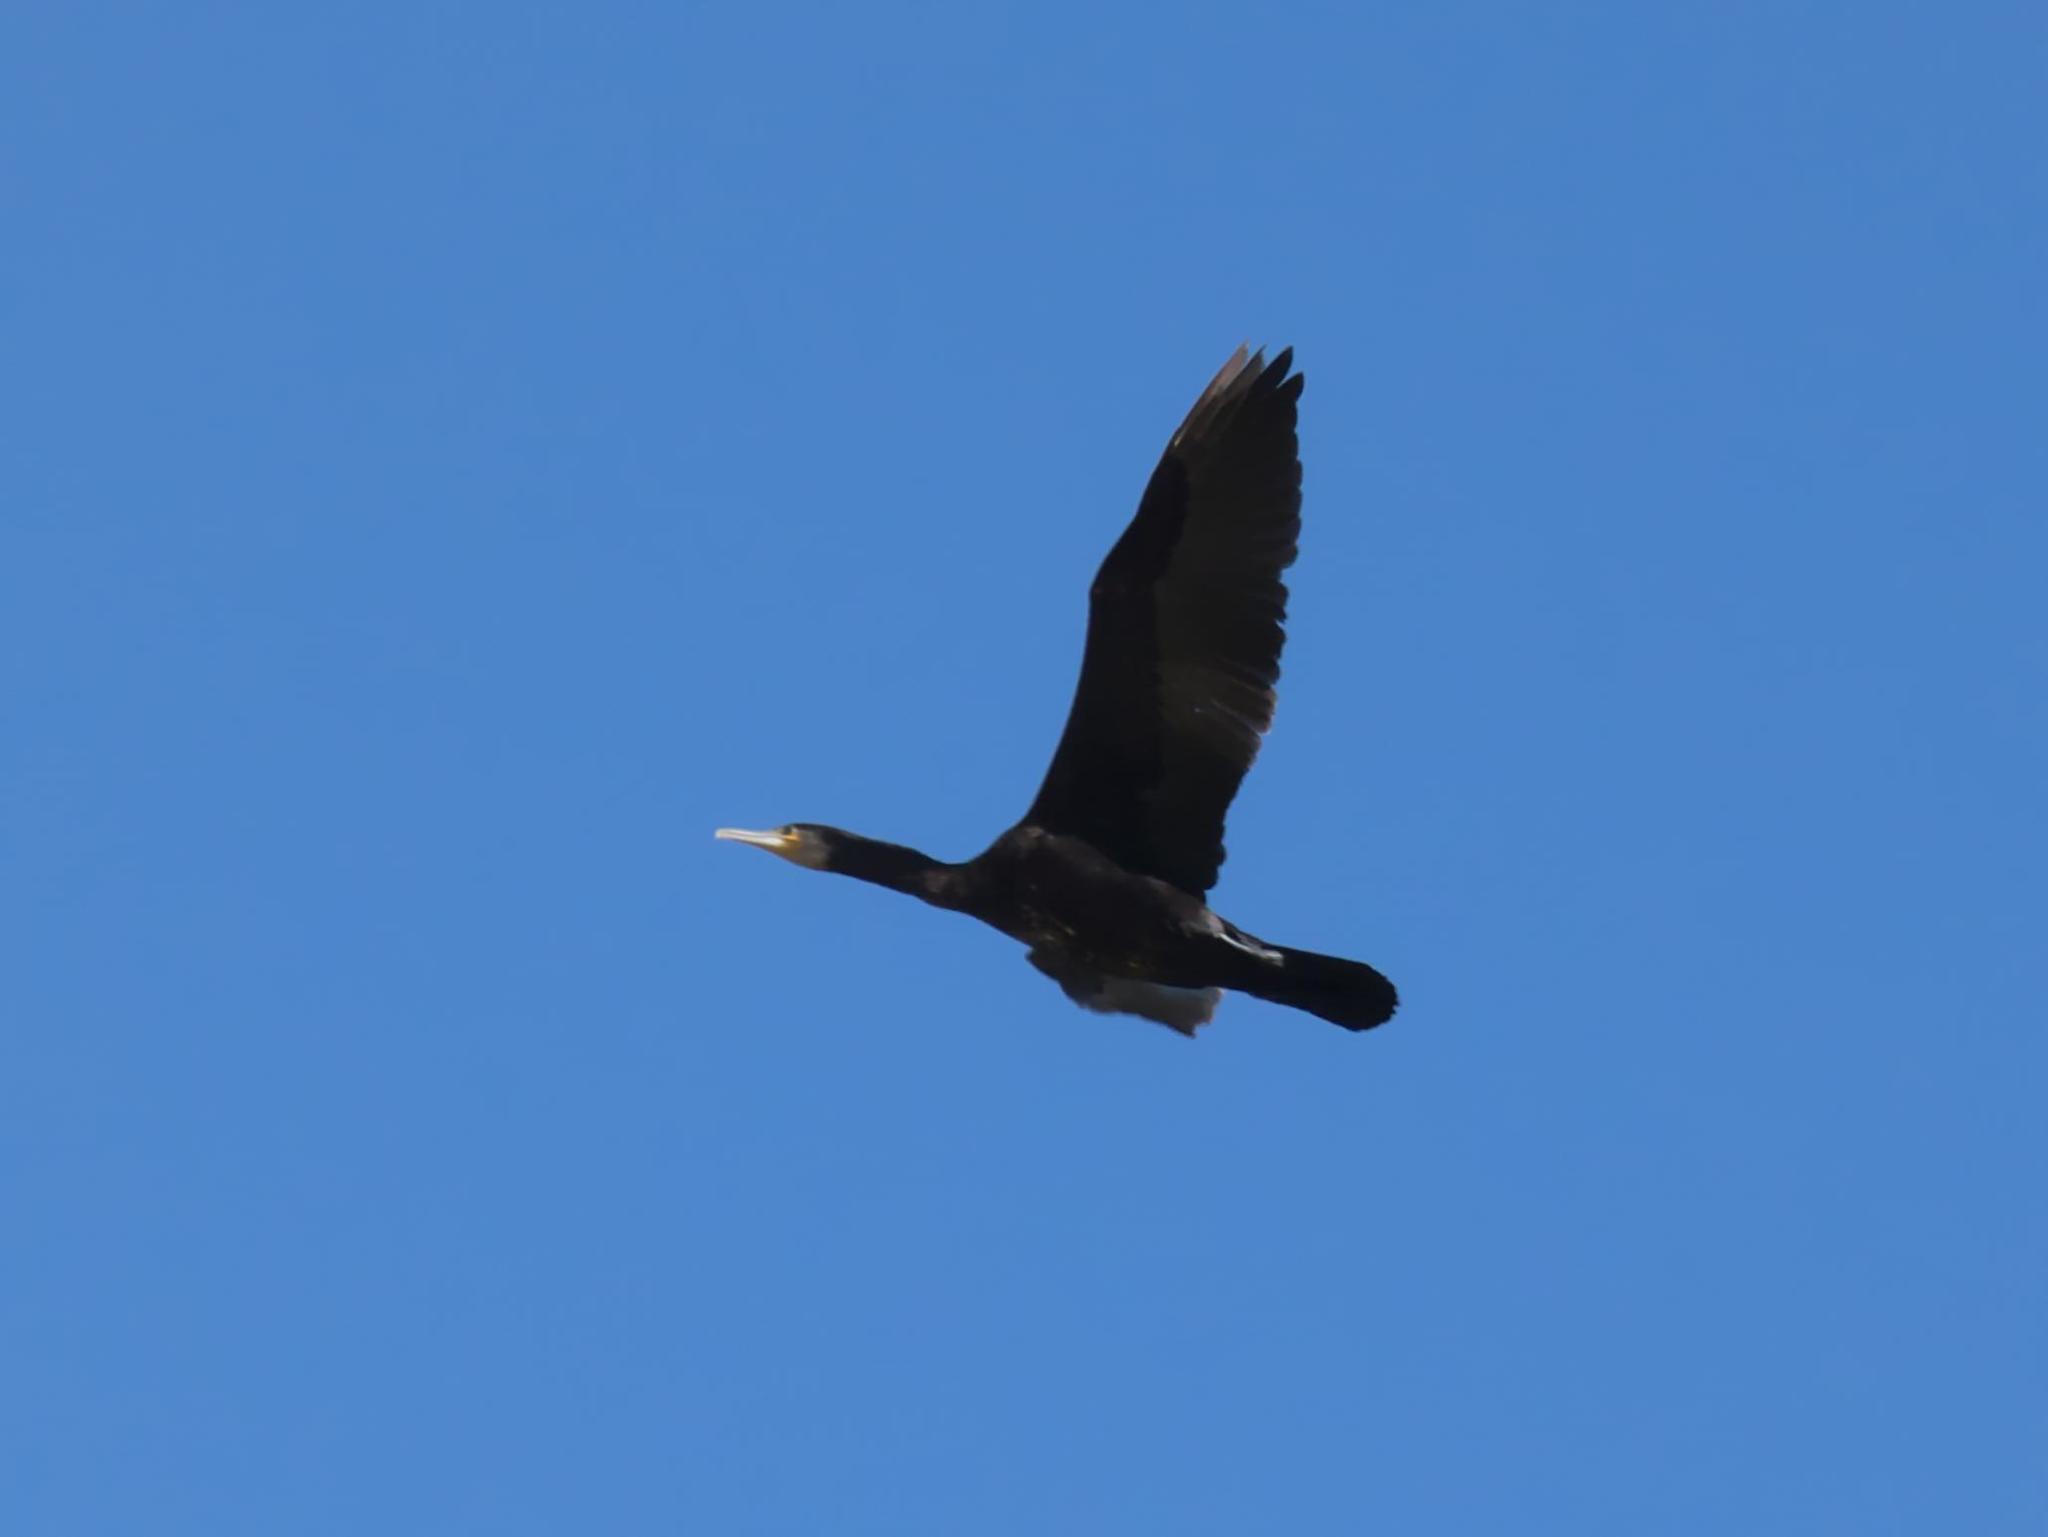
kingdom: Animalia
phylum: Chordata
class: Aves
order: Suliformes
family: Phalacrocoracidae
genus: Phalacrocorax
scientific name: Phalacrocorax carbo
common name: Great cormorant
